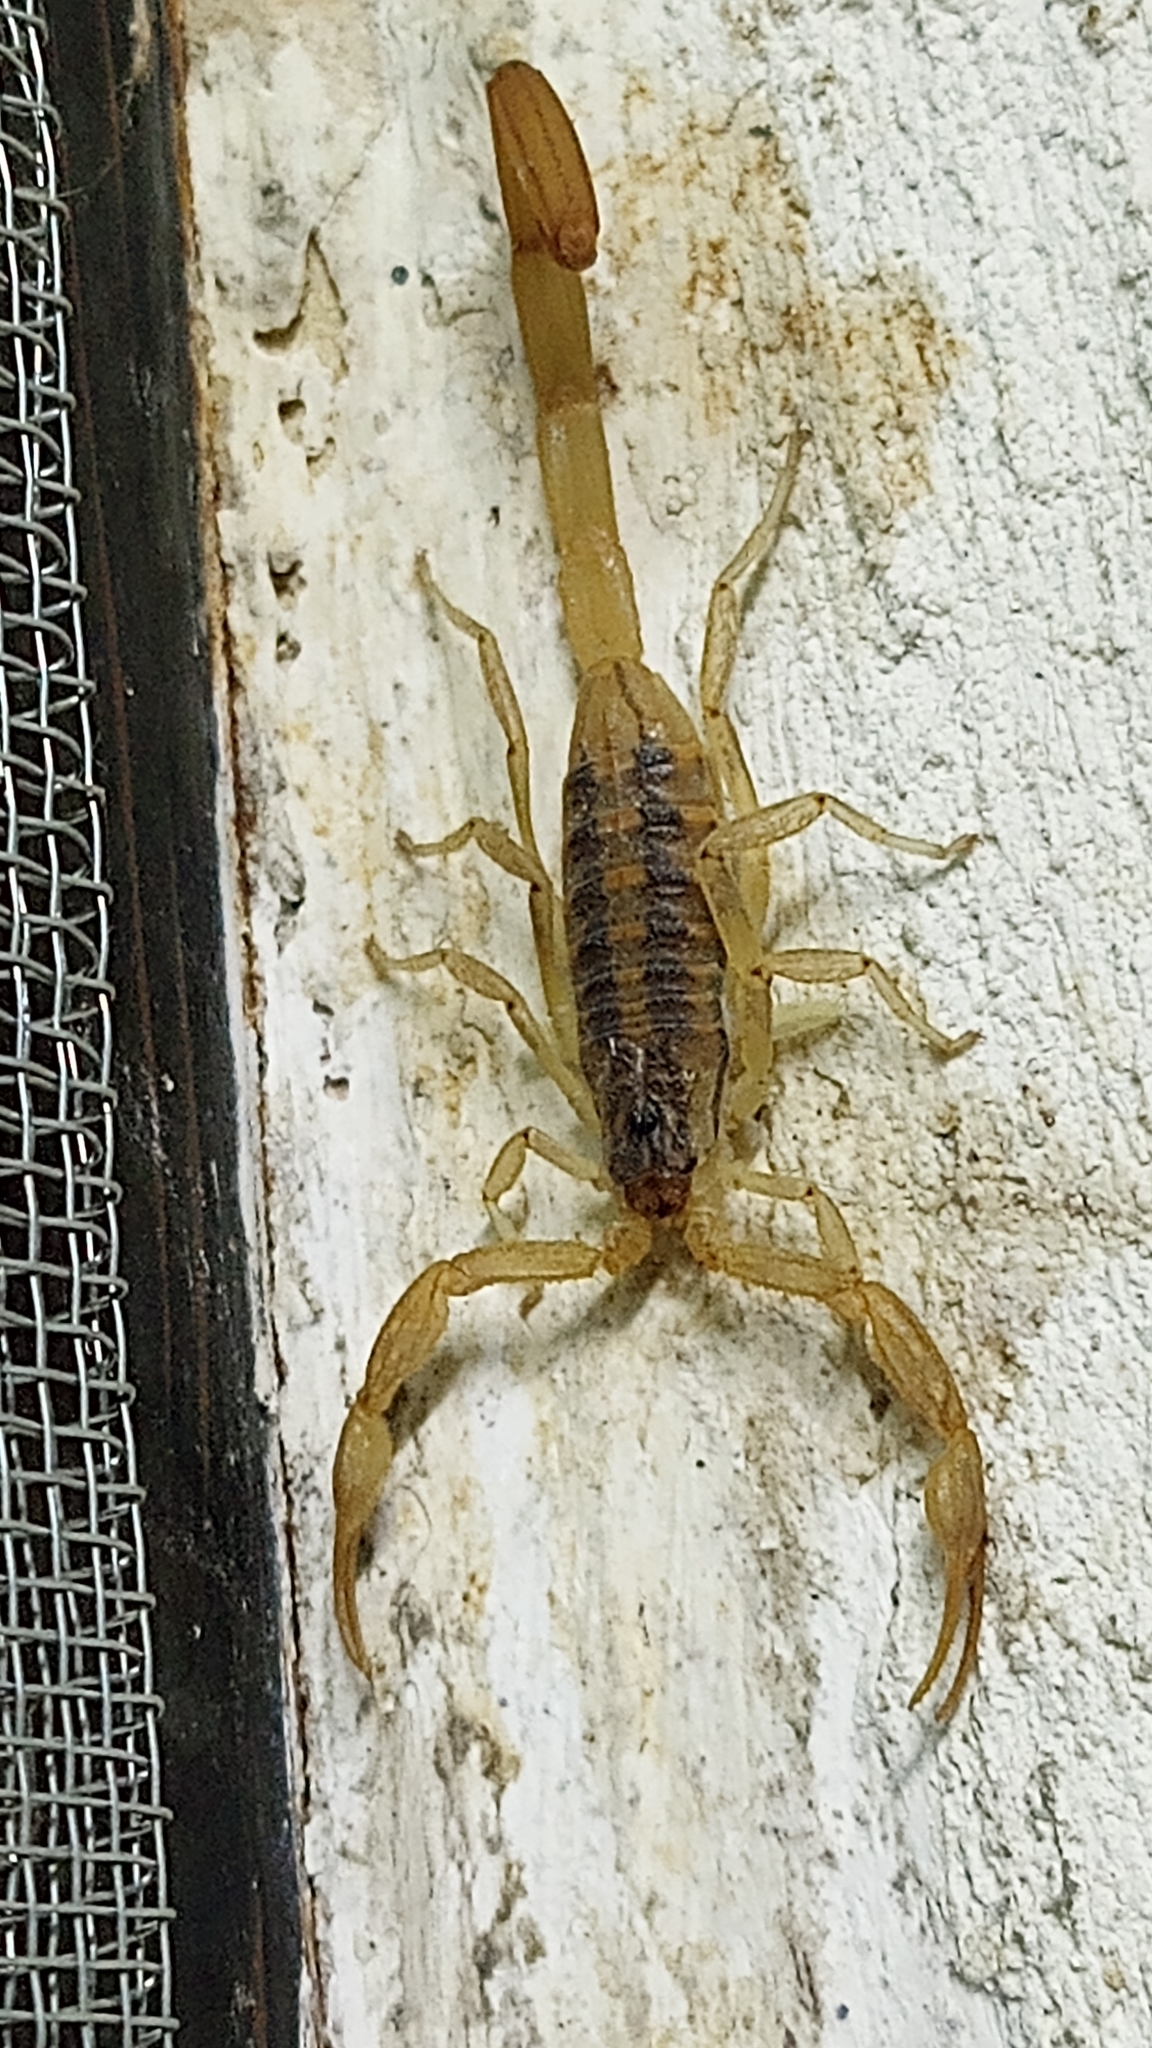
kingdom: Animalia
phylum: Arthropoda
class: Arachnida
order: Scorpiones
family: Buthidae
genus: Centruroides
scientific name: Centruroides ornatus
